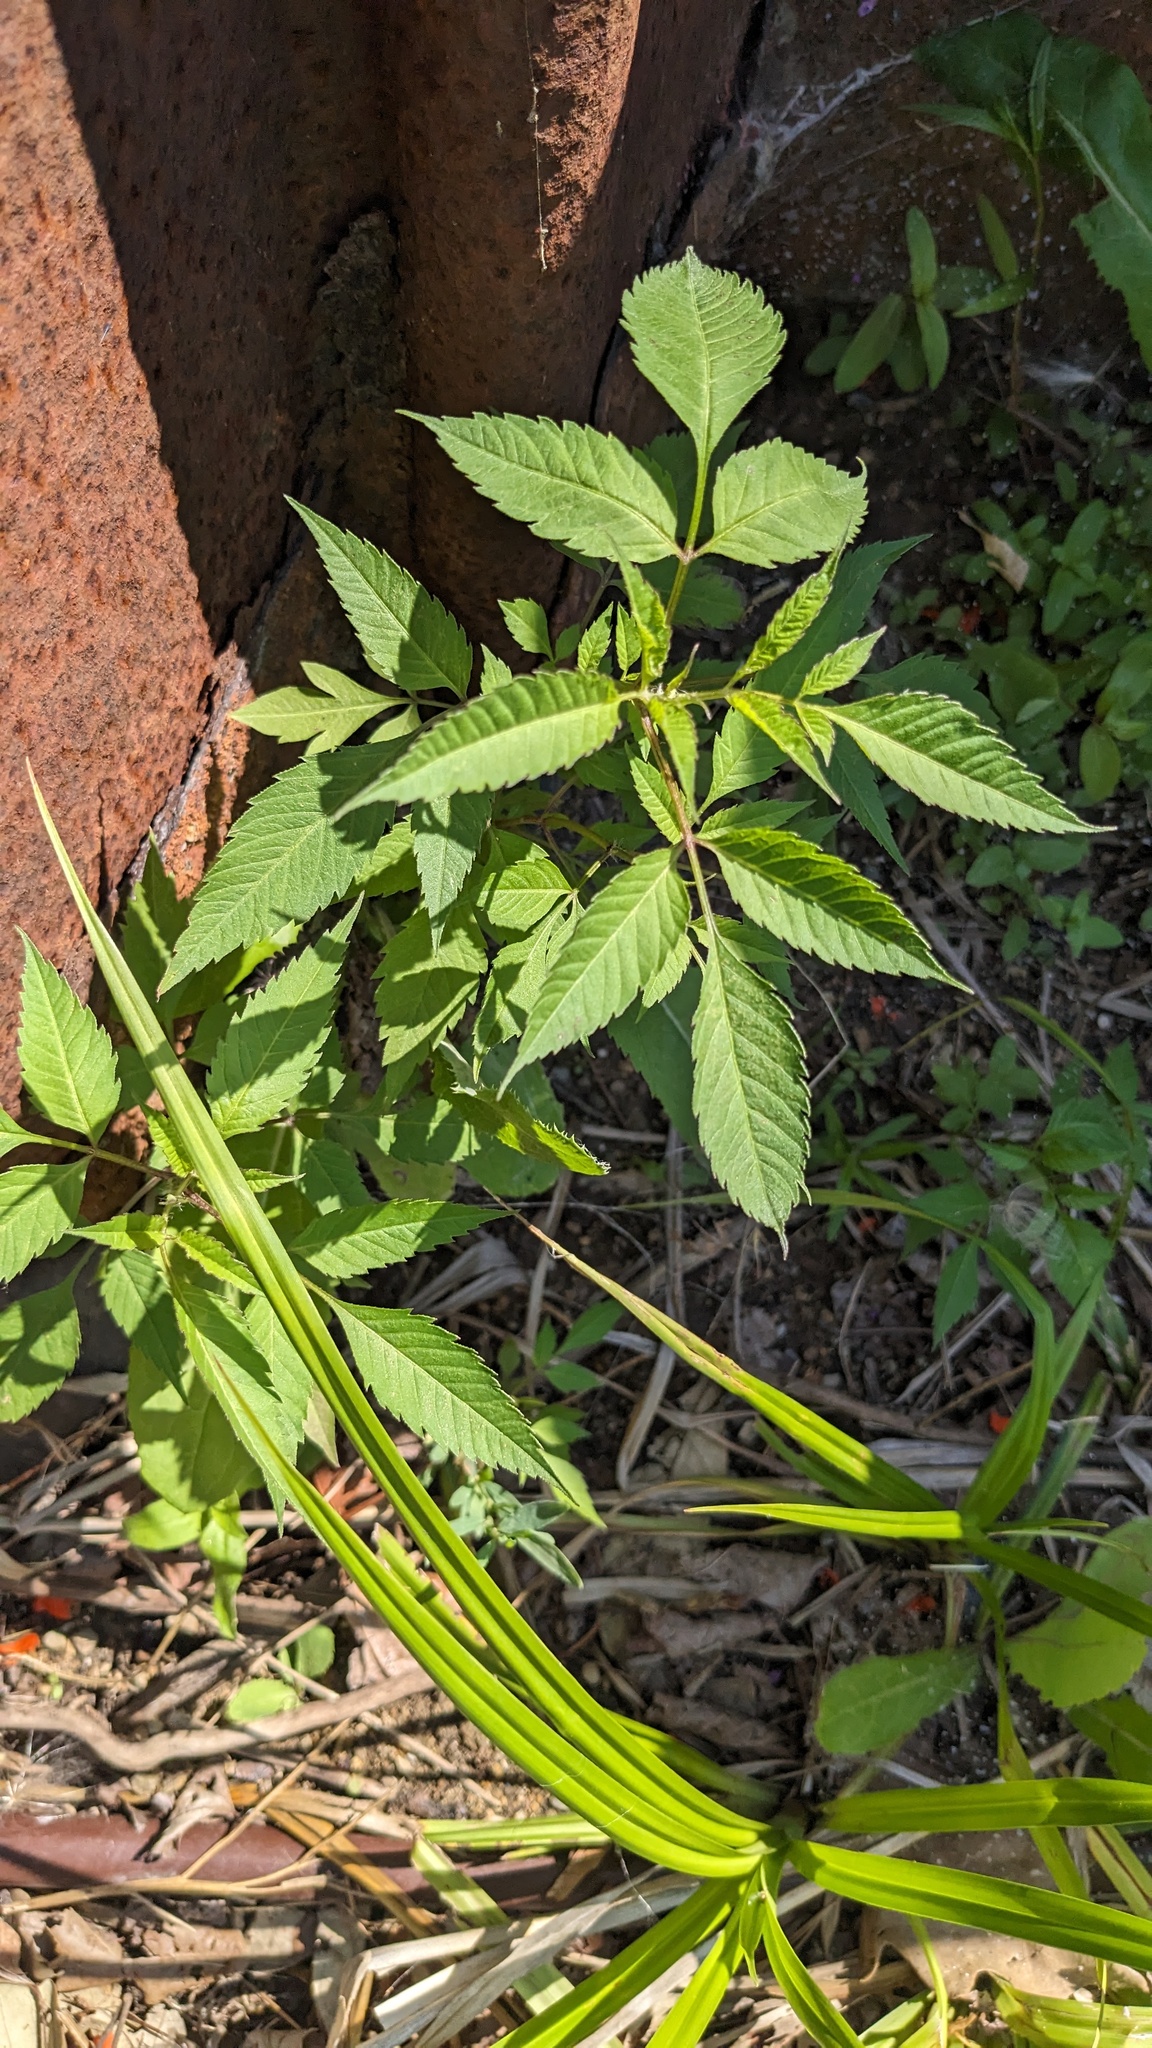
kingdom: Plantae
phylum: Tracheophyta
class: Magnoliopsida
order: Asterales
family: Asteraceae
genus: Bidens
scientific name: Bidens frondosa
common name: Beggarticks
